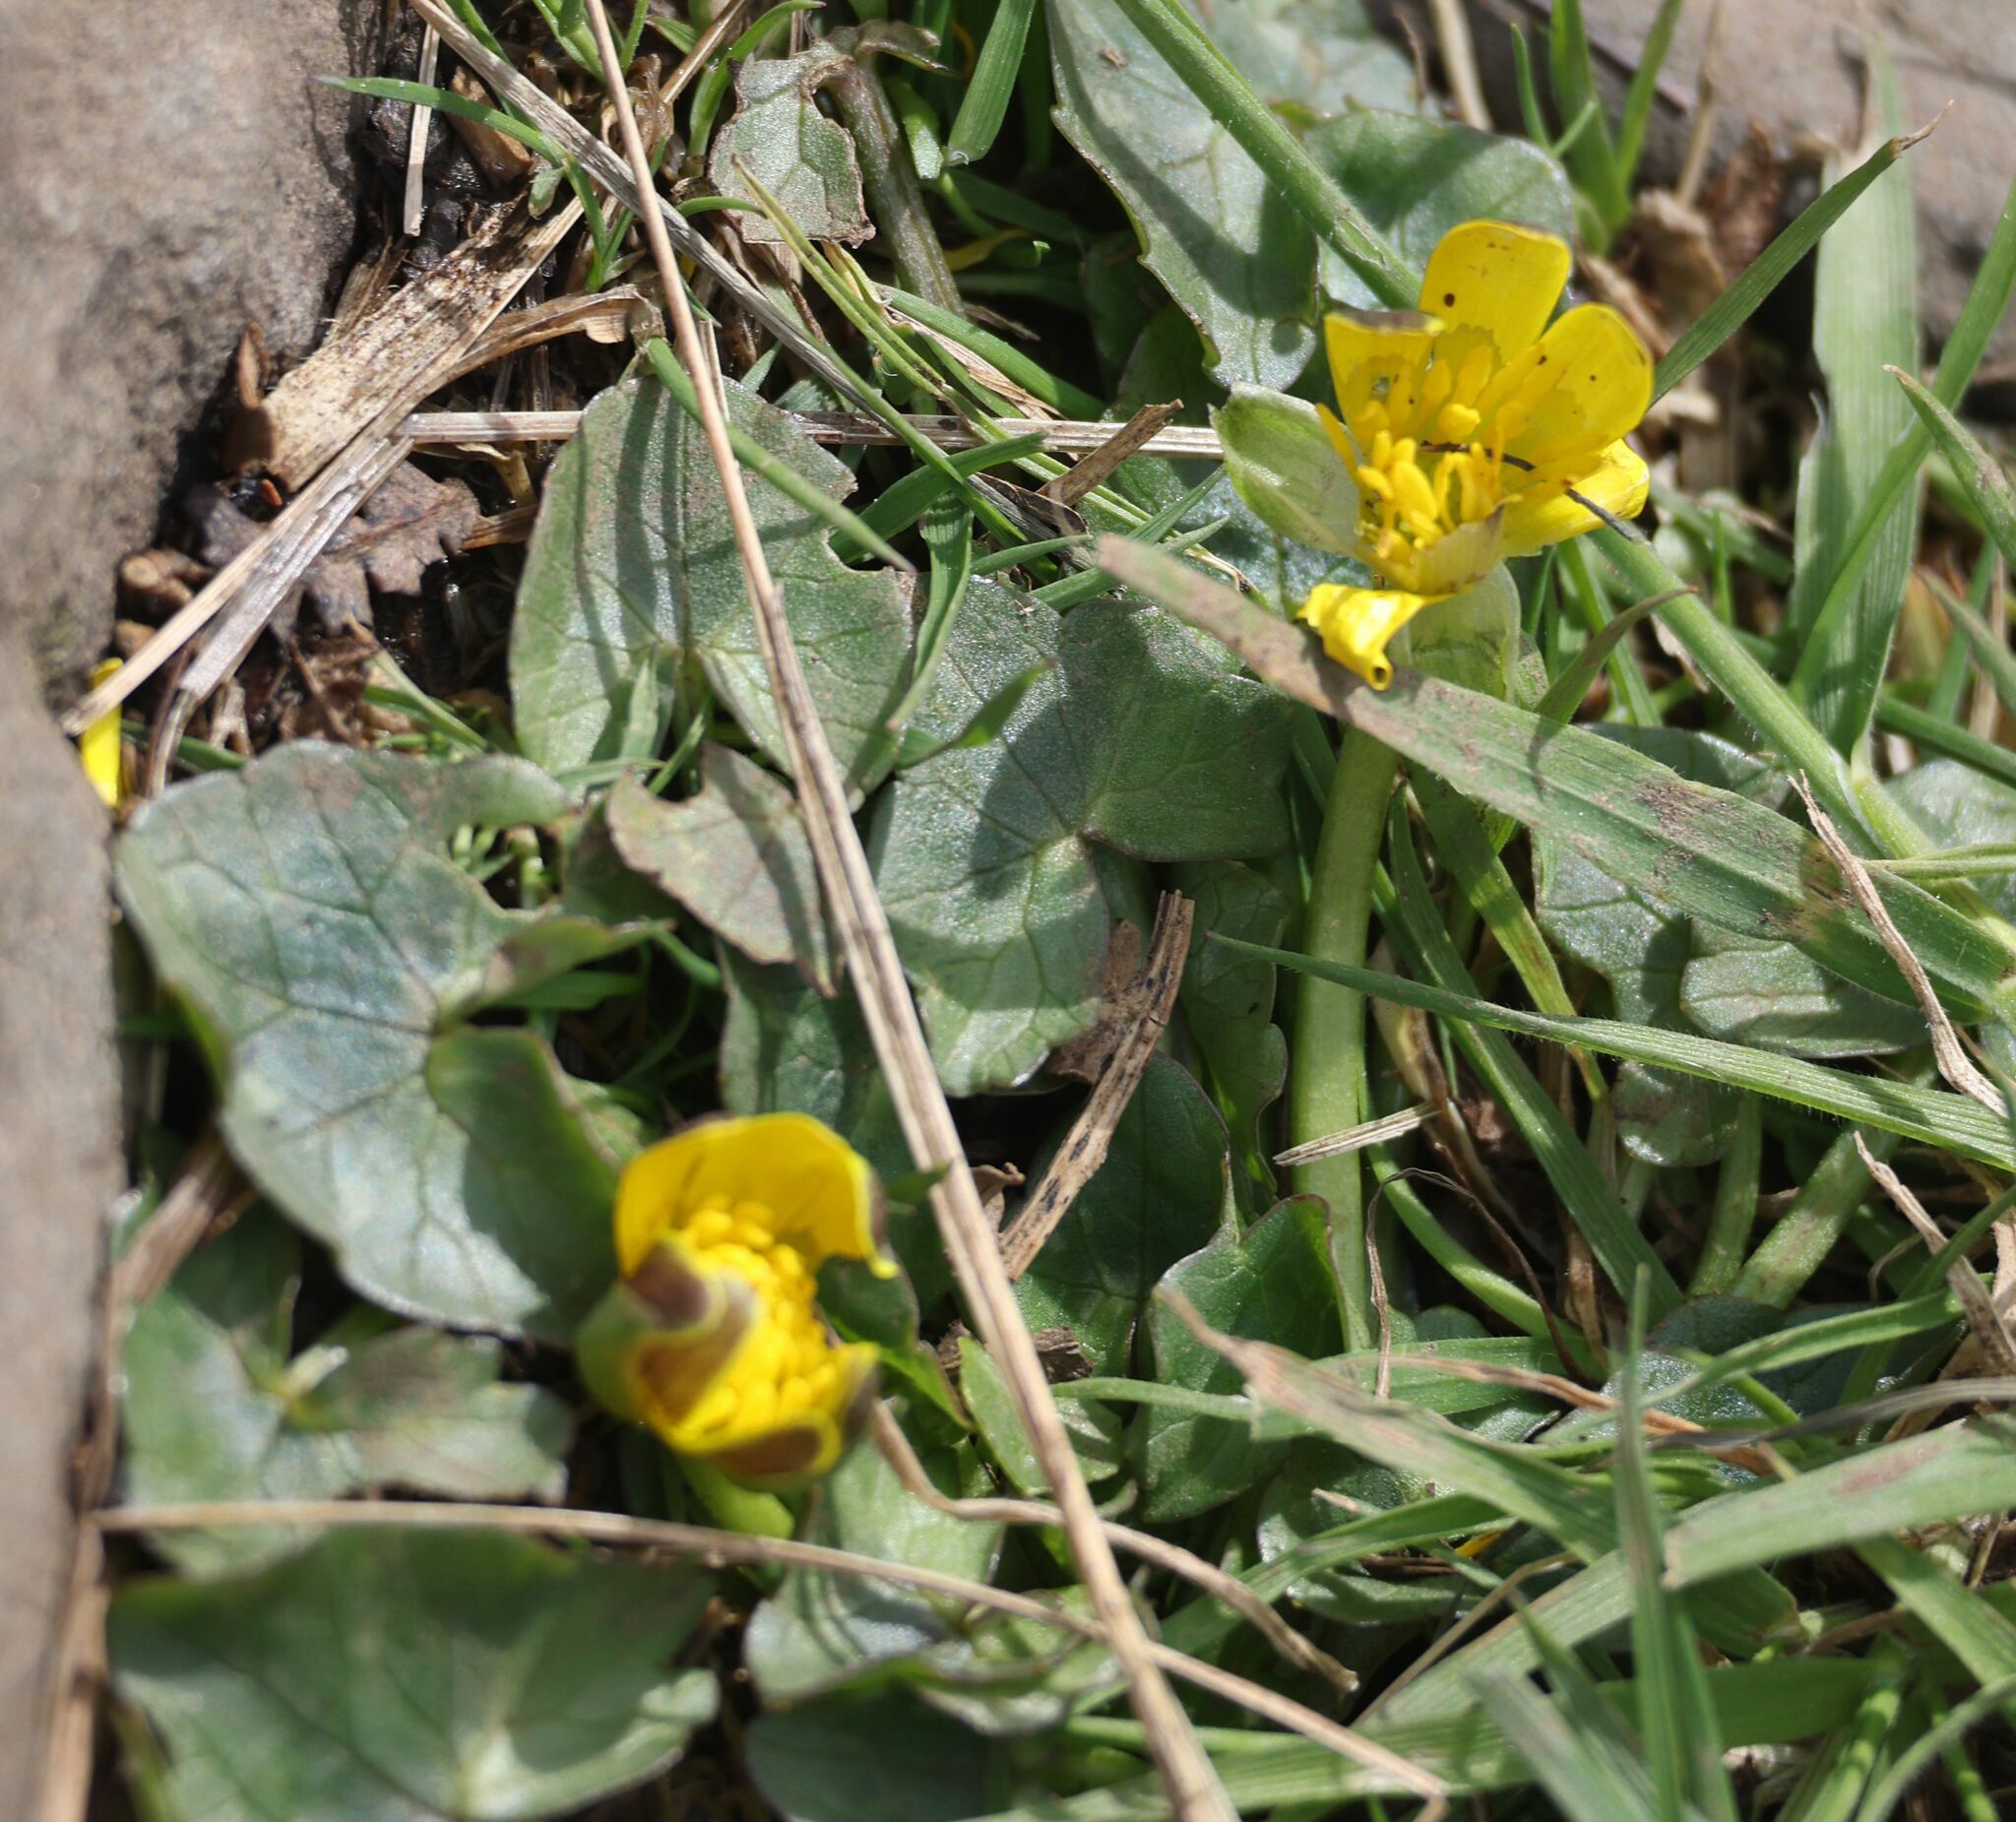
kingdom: Plantae
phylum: Tracheophyta
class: Magnoliopsida
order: Ranunculales
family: Ranunculaceae
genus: Ficaria
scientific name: Ficaria verna
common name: Lesser celandine
